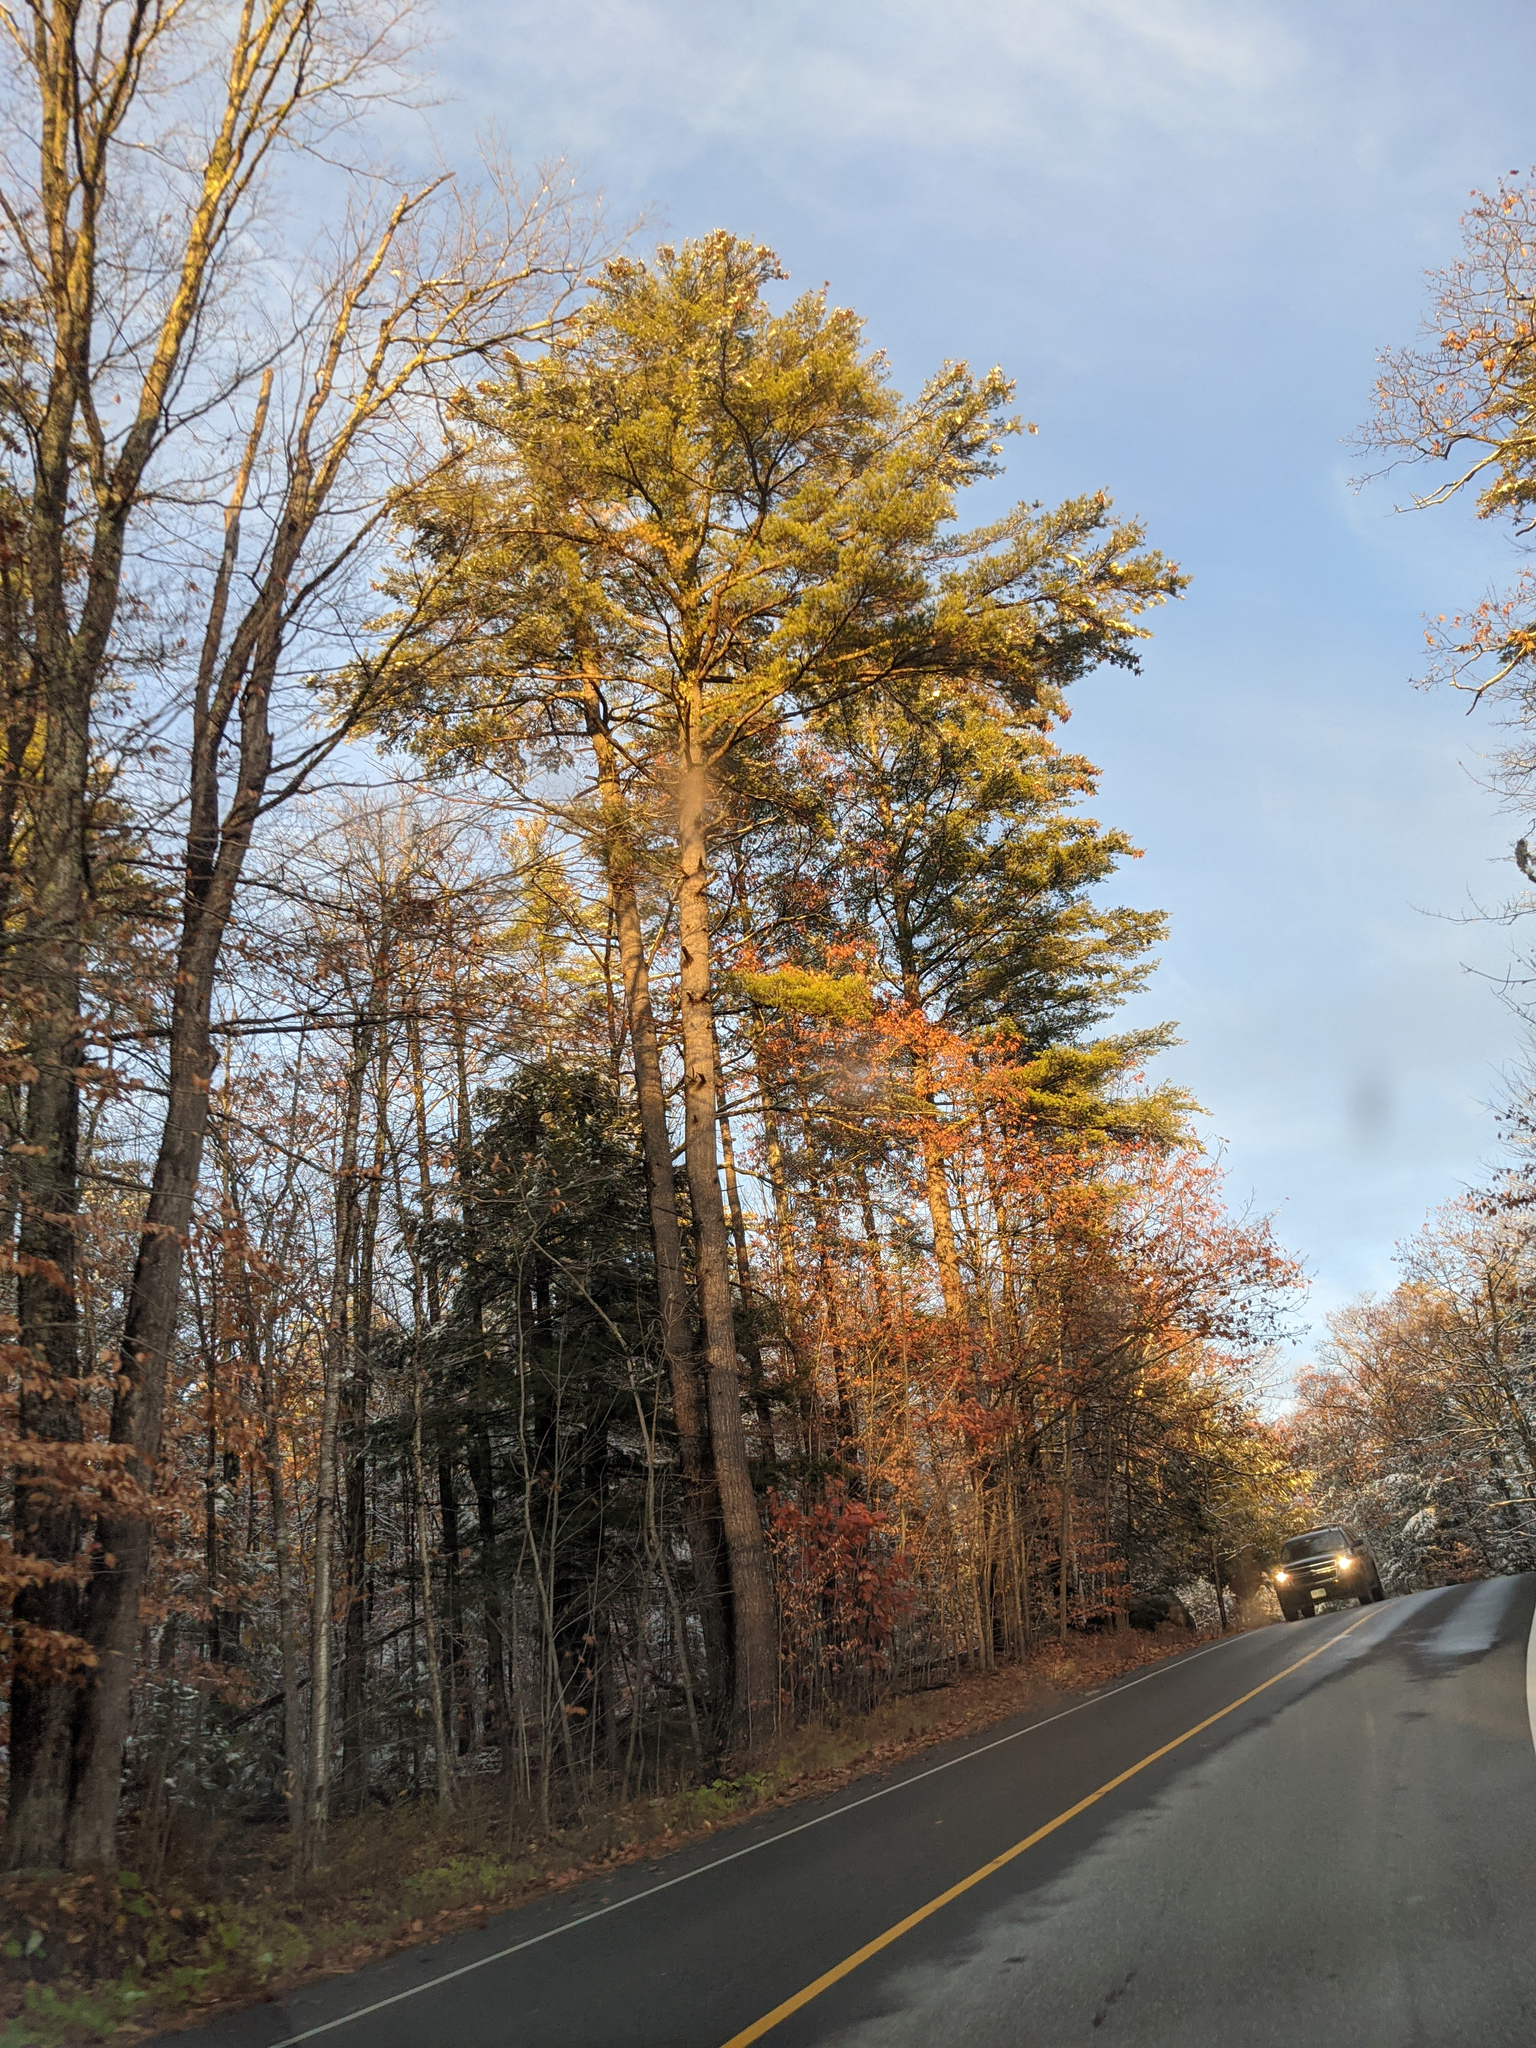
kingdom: Plantae
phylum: Tracheophyta
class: Pinopsida
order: Pinales
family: Pinaceae
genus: Pinus
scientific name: Pinus strobus
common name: Weymouth pine
